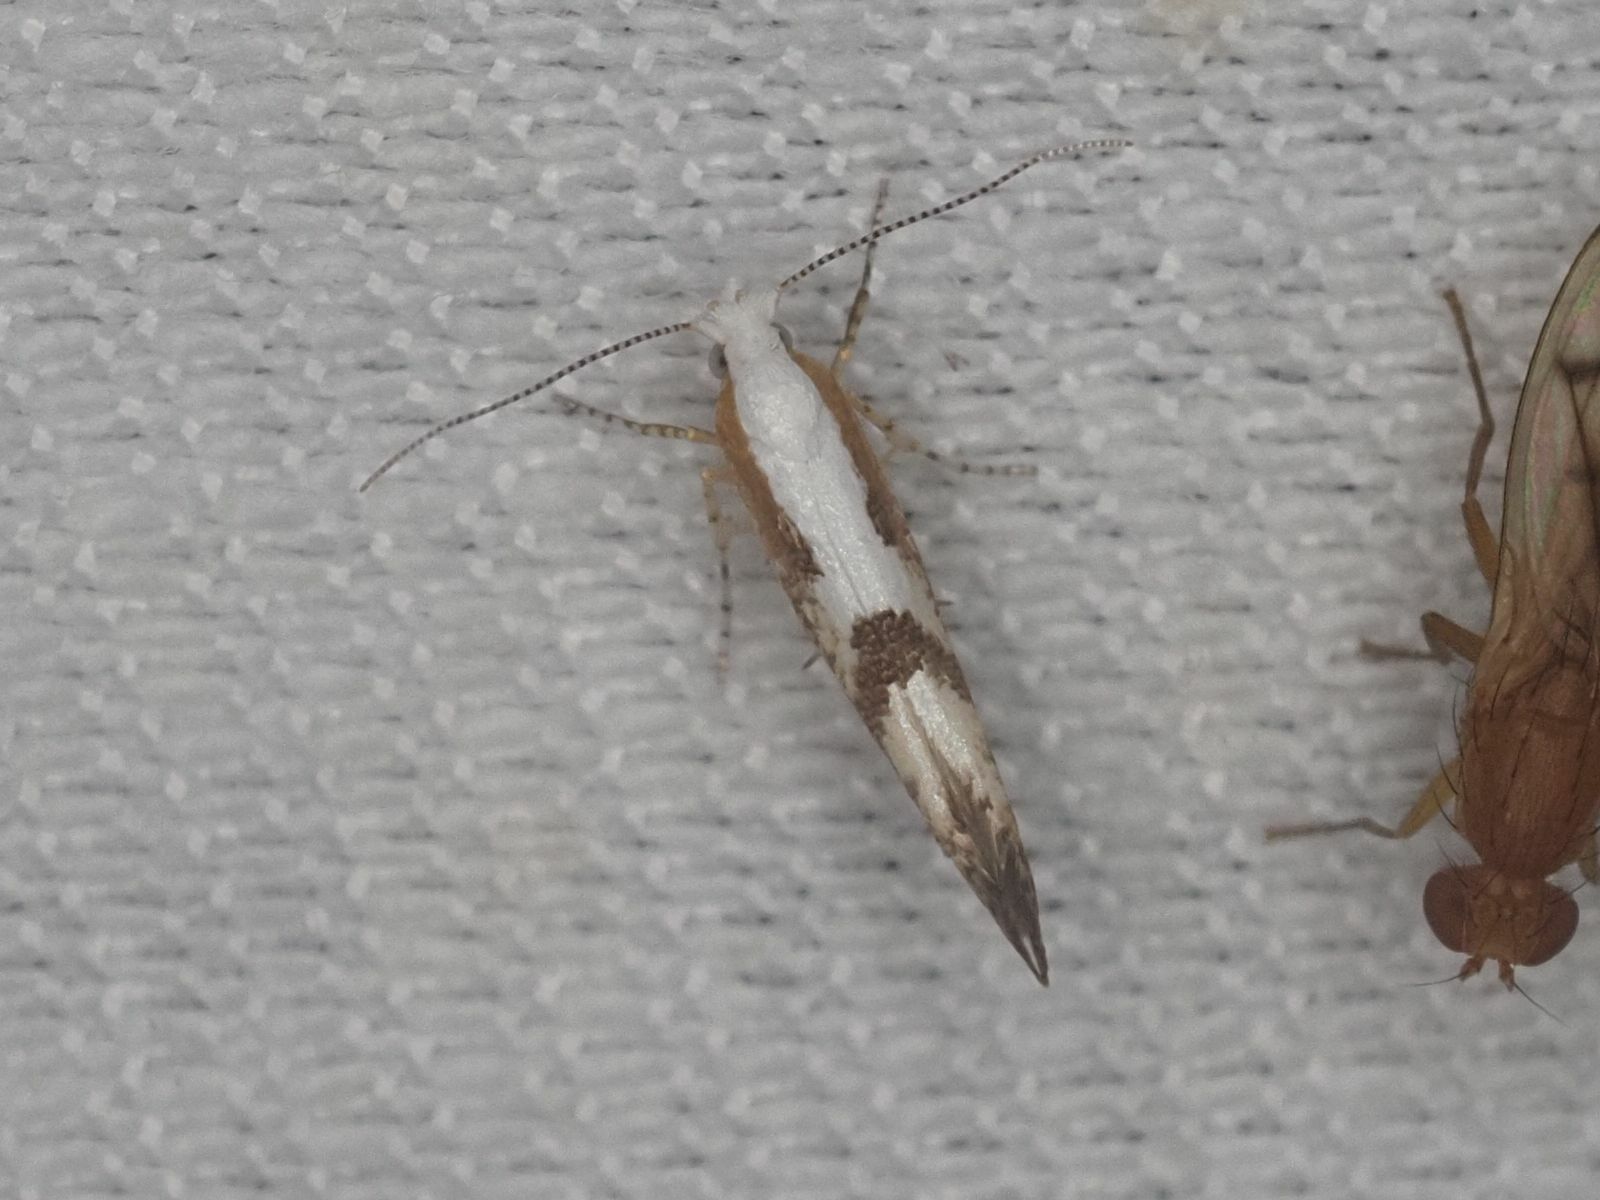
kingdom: Animalia
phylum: Arthropoda
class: Insecta
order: Lepidoptera
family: Argyresthiidae
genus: Argyresthia
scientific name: Argyresthia pruniella
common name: Cherry fruit moth
